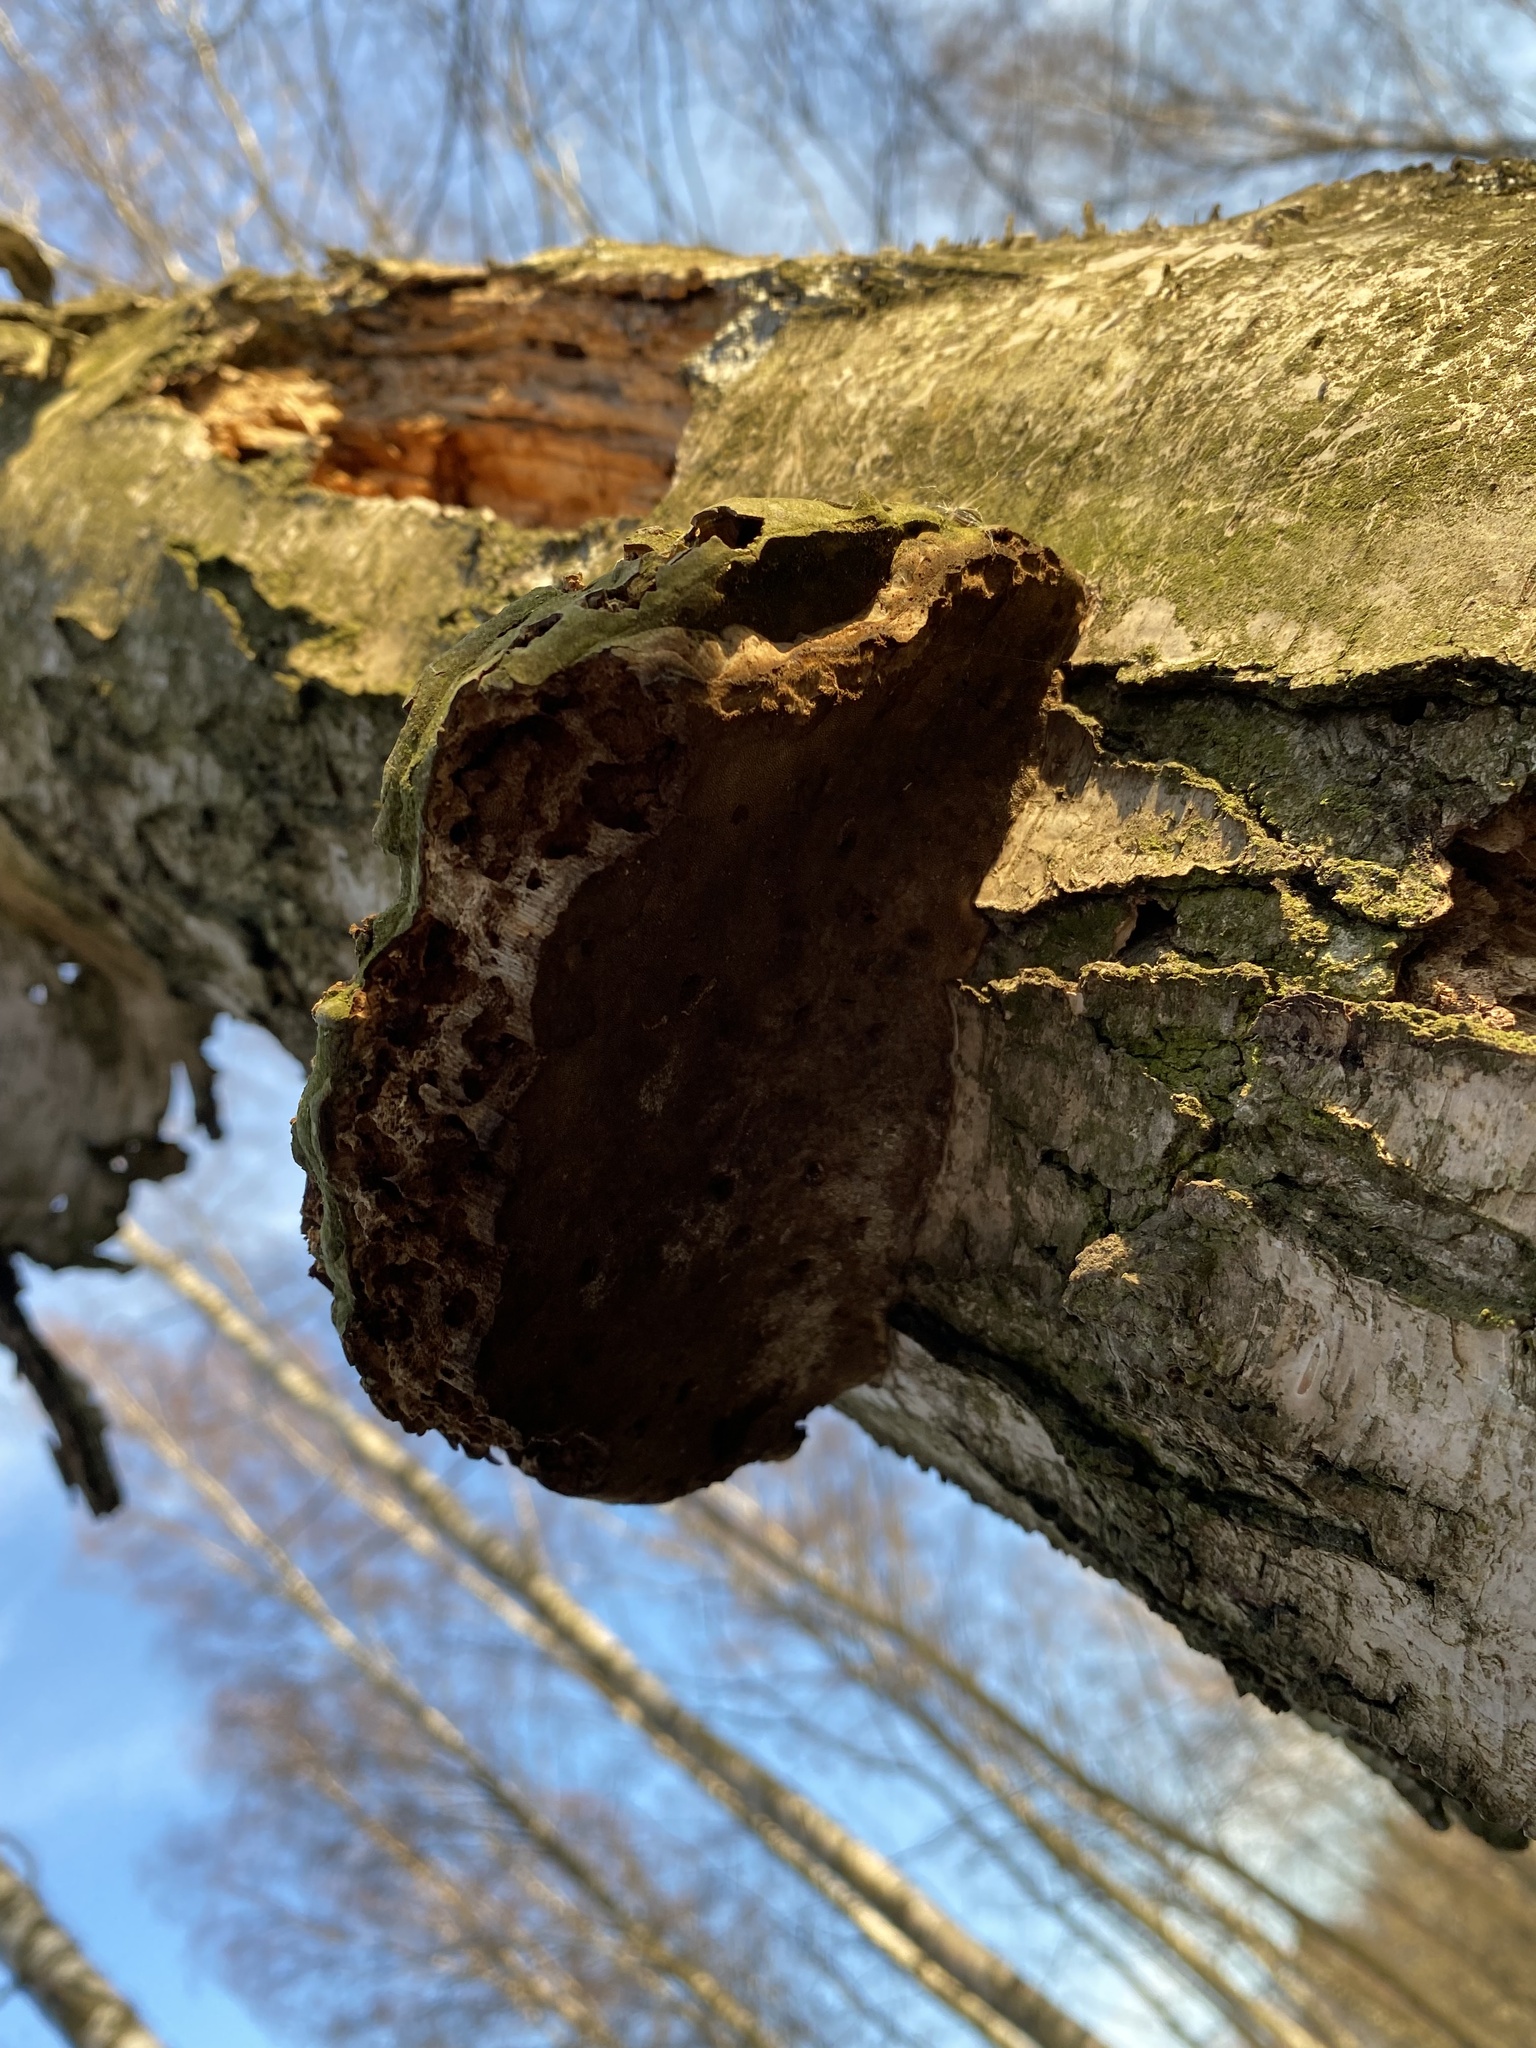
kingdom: Fungi
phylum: Basidiomycota
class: Agaricomycetes
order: Polyporales
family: Polyporaceae
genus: Fomes
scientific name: Fomes fomentarius
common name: Hoof fungus
